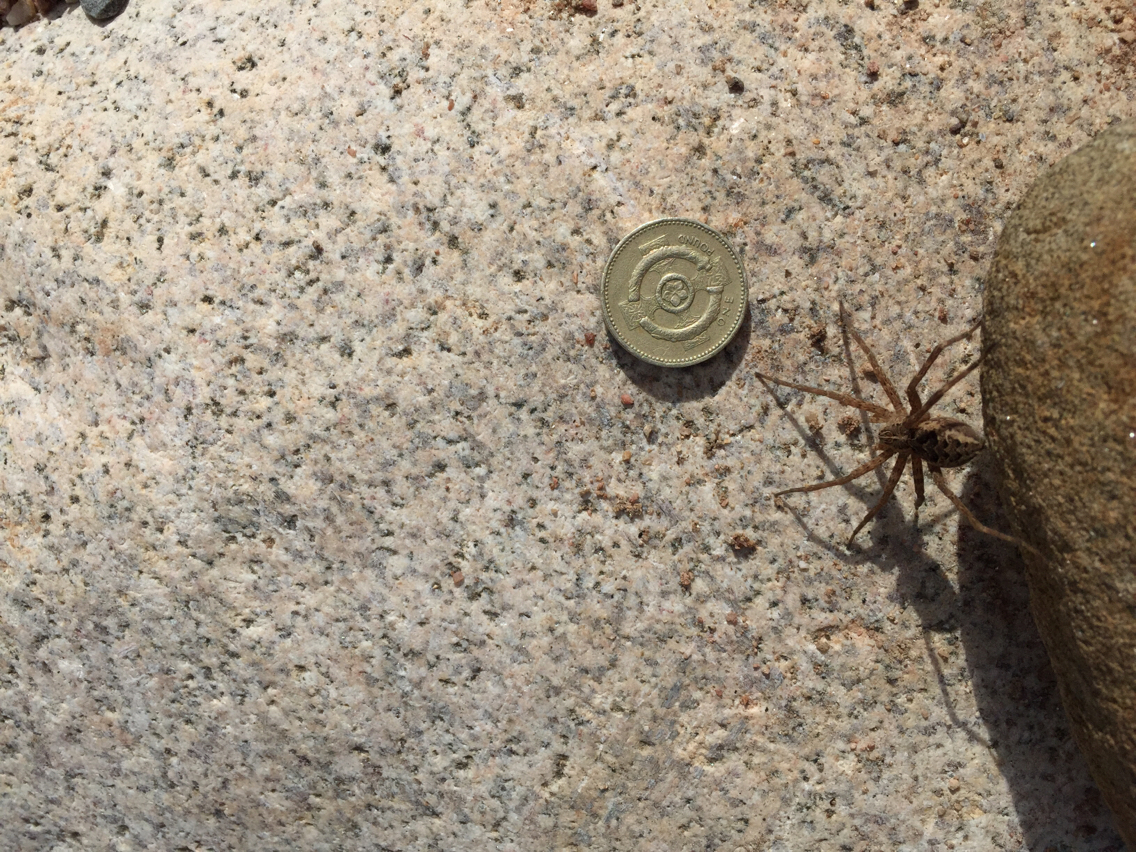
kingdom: Animalia
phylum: Arthropoda
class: Arachnida
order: Araneae
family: Pisauridae
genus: Dolomedes
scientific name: Dolomedes scriptus
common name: Striped fishing spider
